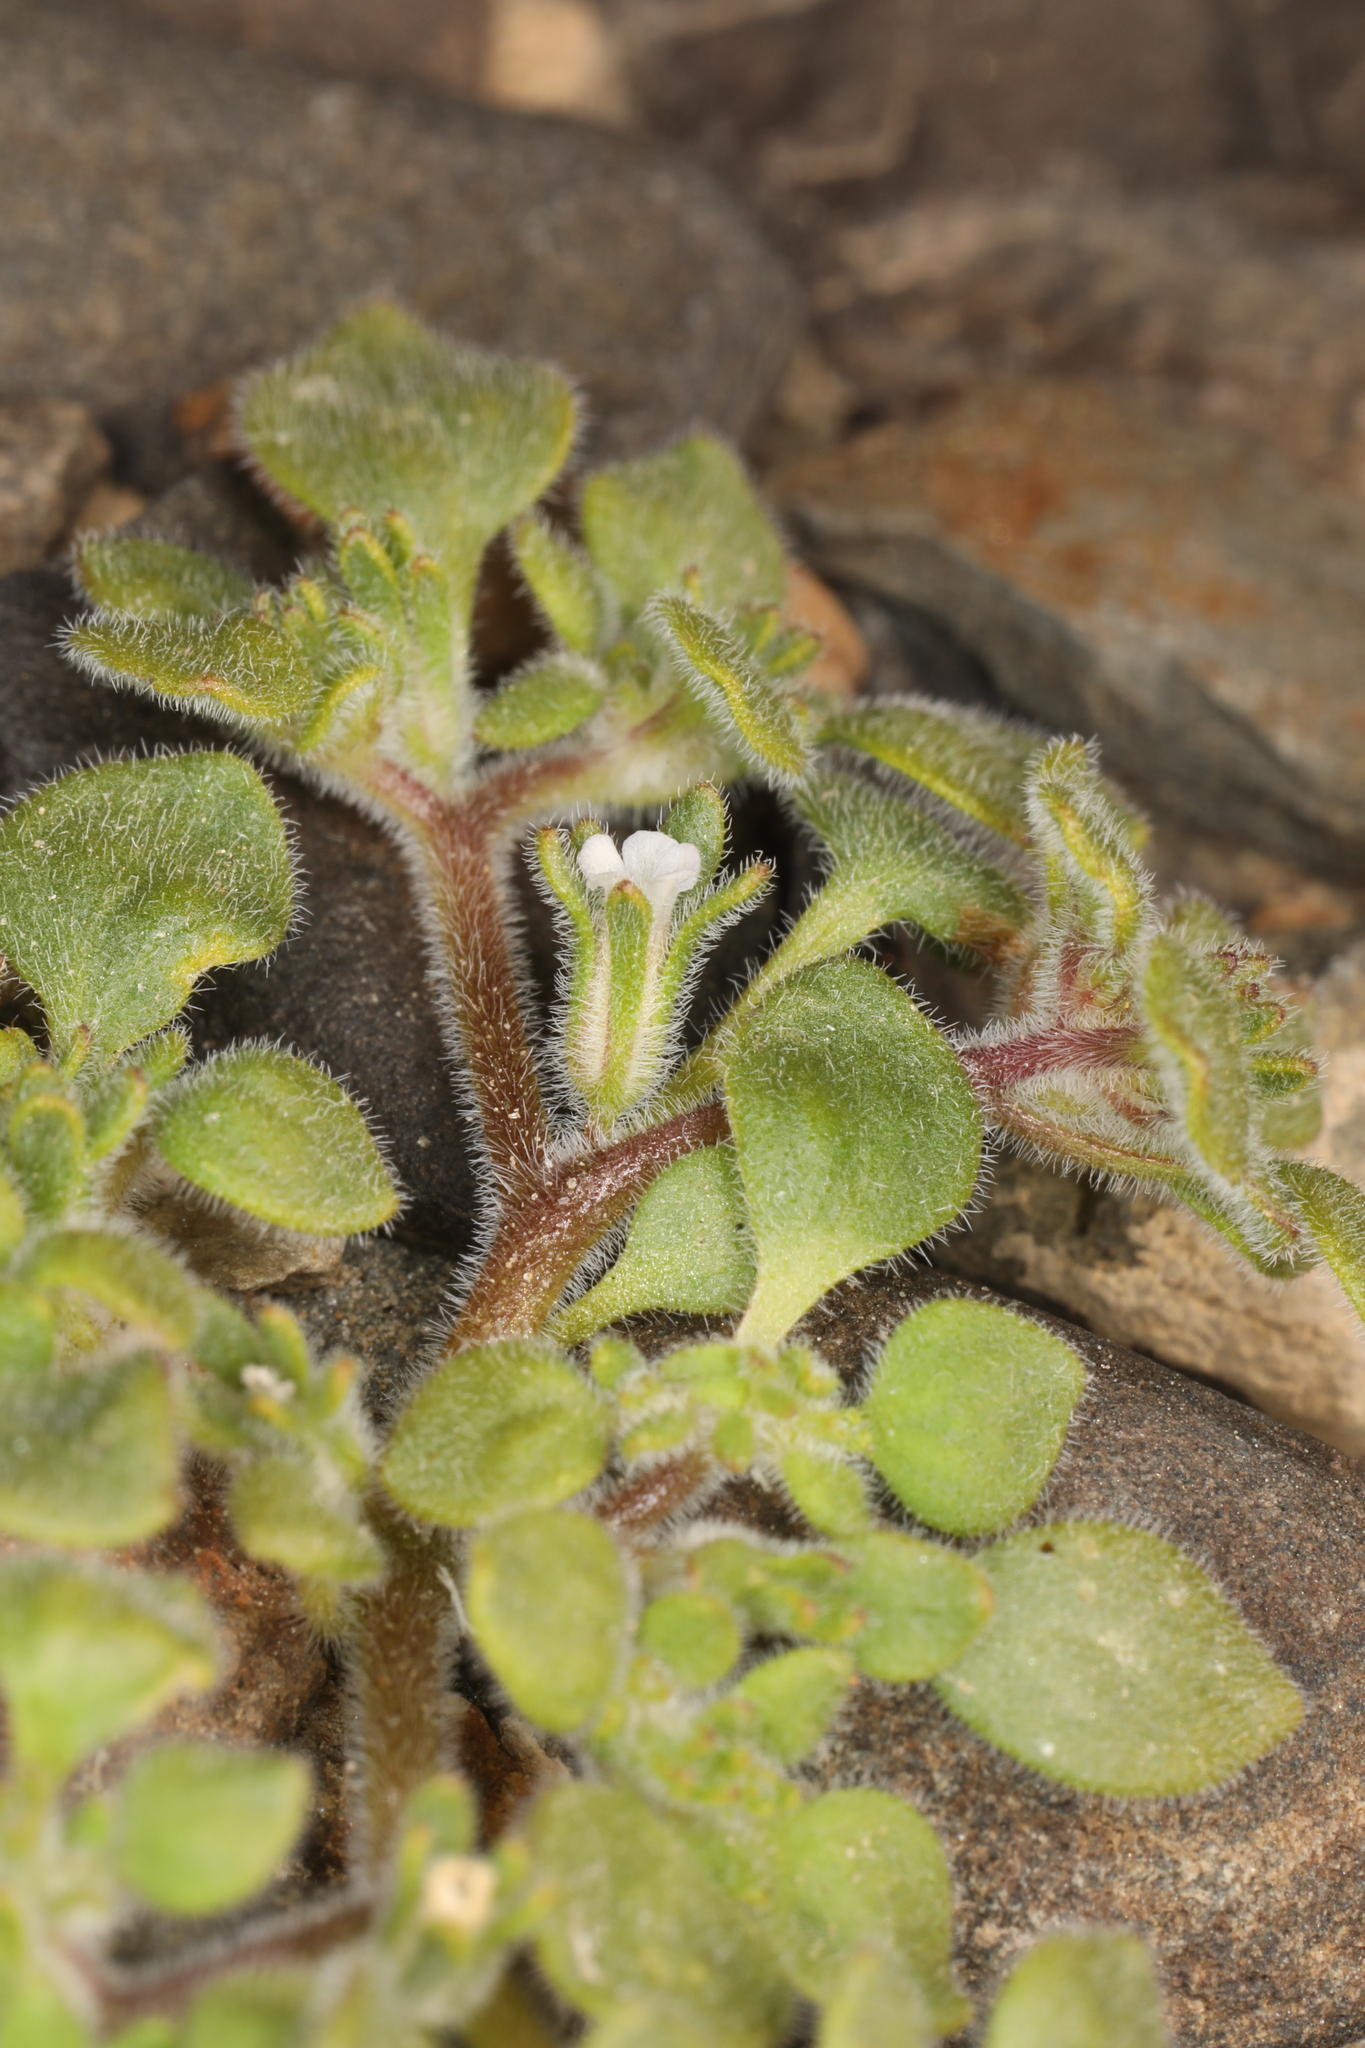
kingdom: Plantae
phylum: Tracheophyta
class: Magnoliopsida
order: Boraginales
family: Namaceae
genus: Nama
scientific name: Nama pusilla
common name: Eggleaf nama
